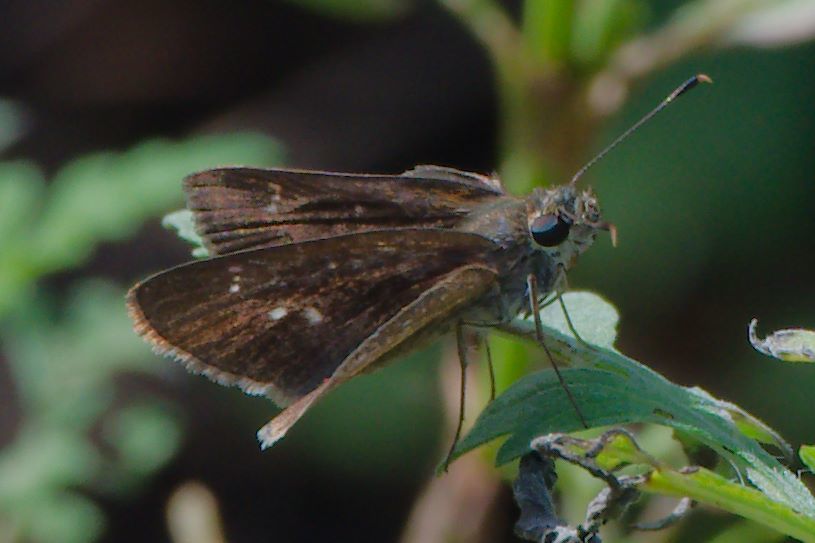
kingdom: Animalia
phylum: Arthropoda
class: Insecta
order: Lepidoptera
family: Hesperiidae
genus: Cymaenes
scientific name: Cymaenes tripunctus
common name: Dingy dotted skipper
